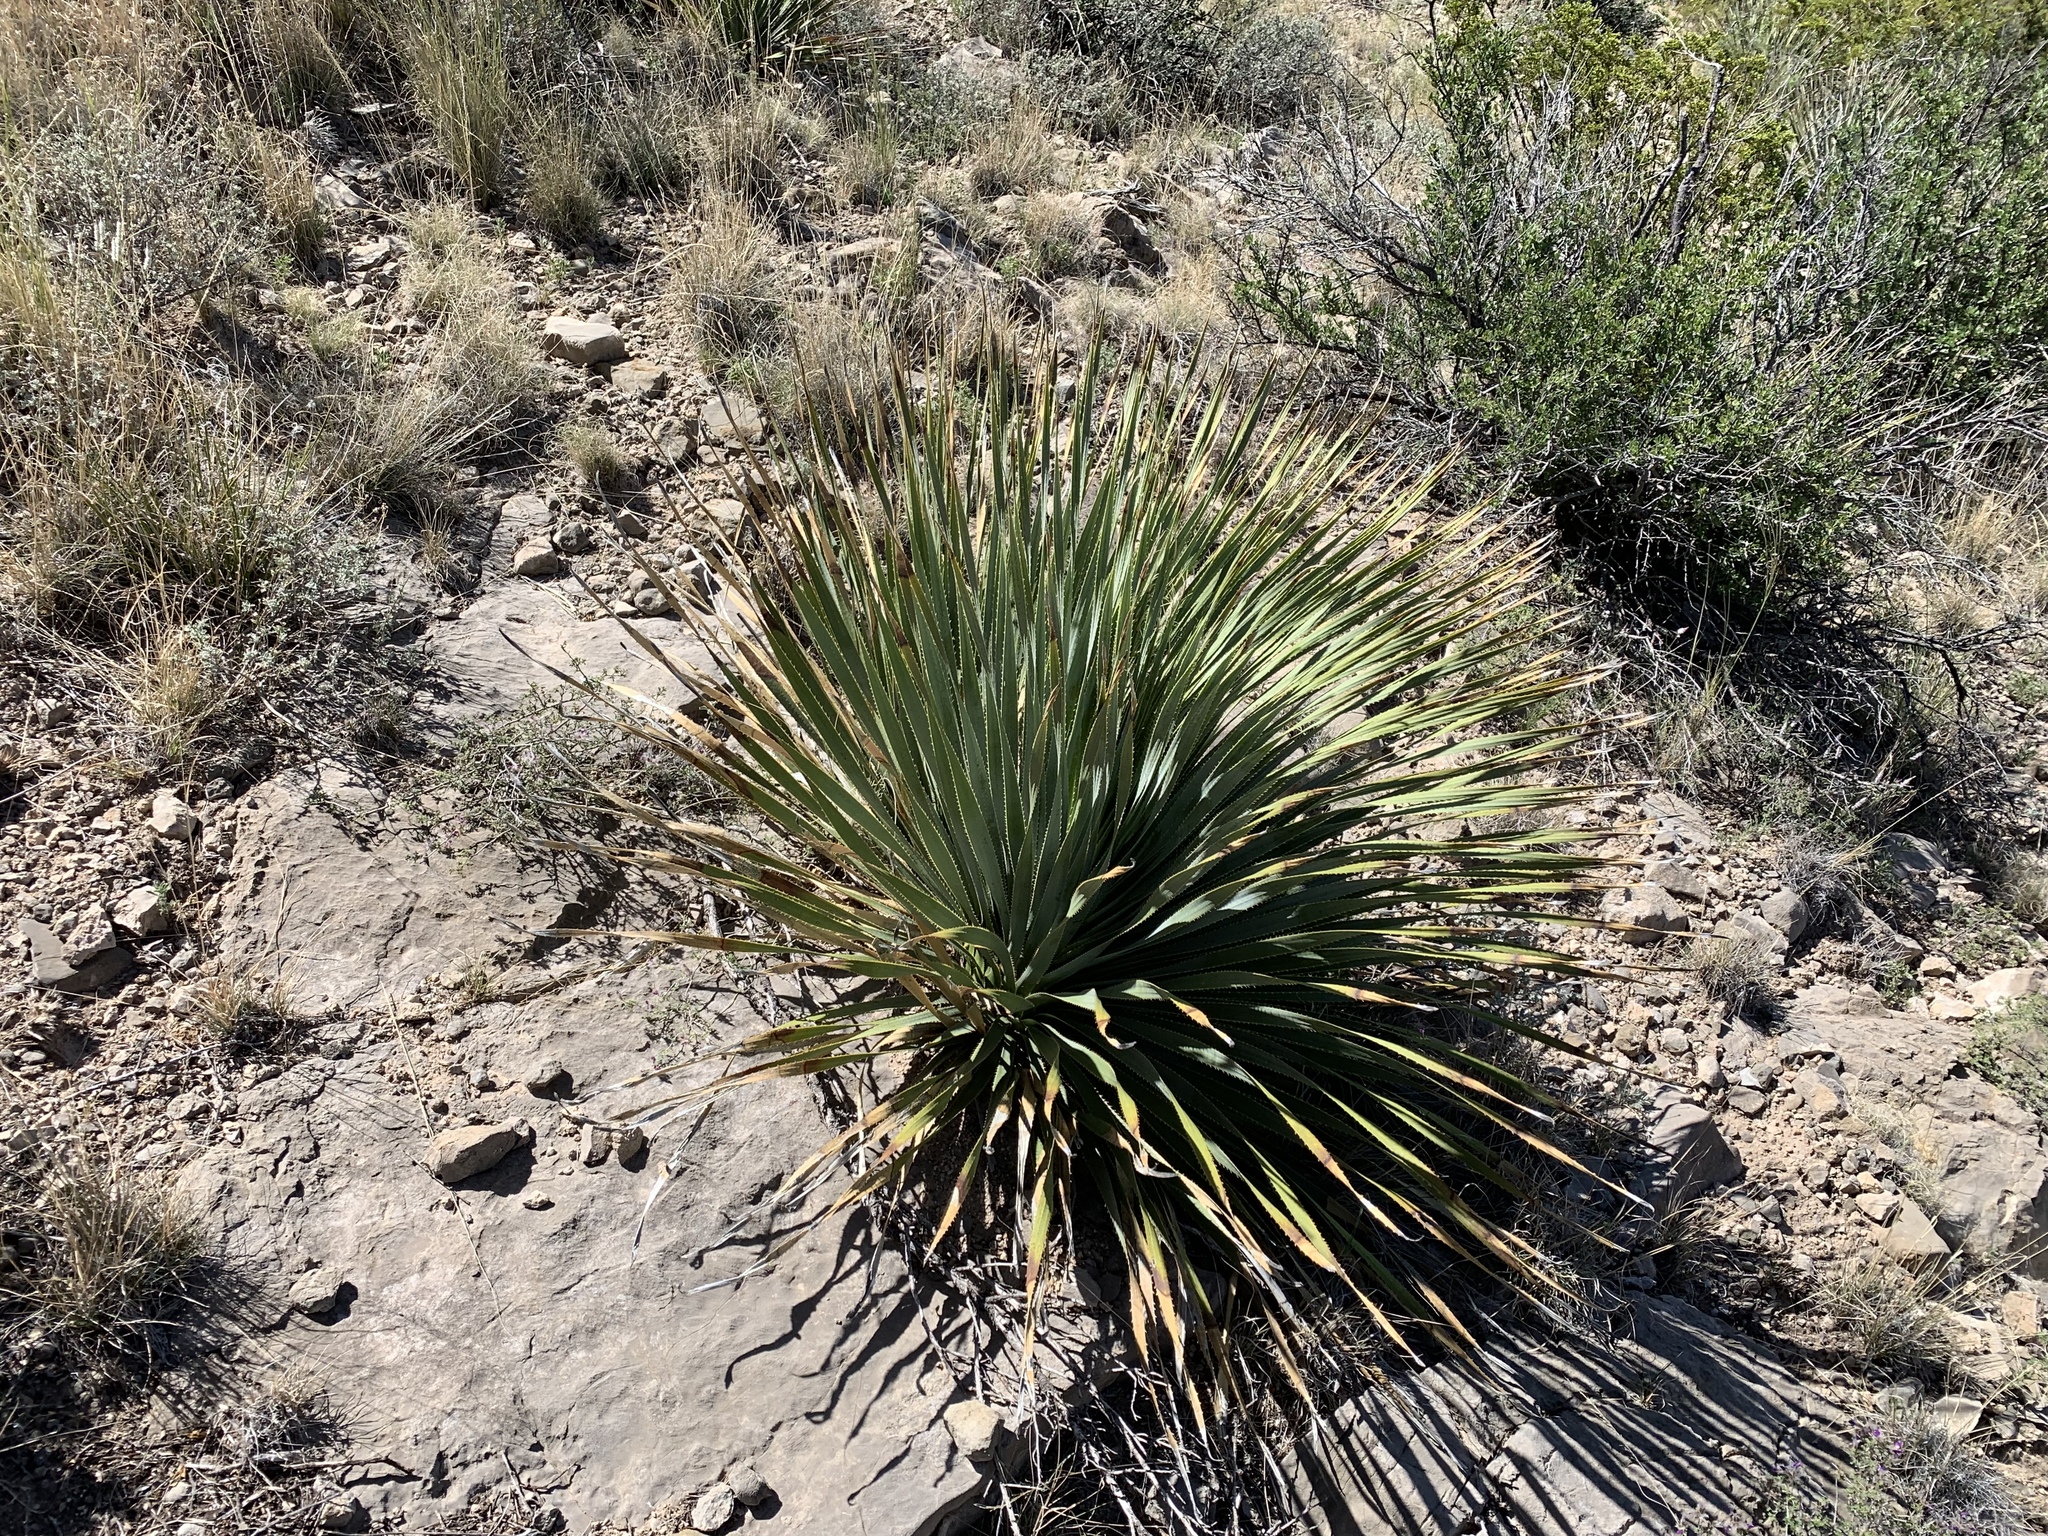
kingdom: Plantae
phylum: Tracheophyta
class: Liliopsida
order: Asparagales
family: Asparagaceae
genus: Dasylirion
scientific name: Dasylirion wheeleri
